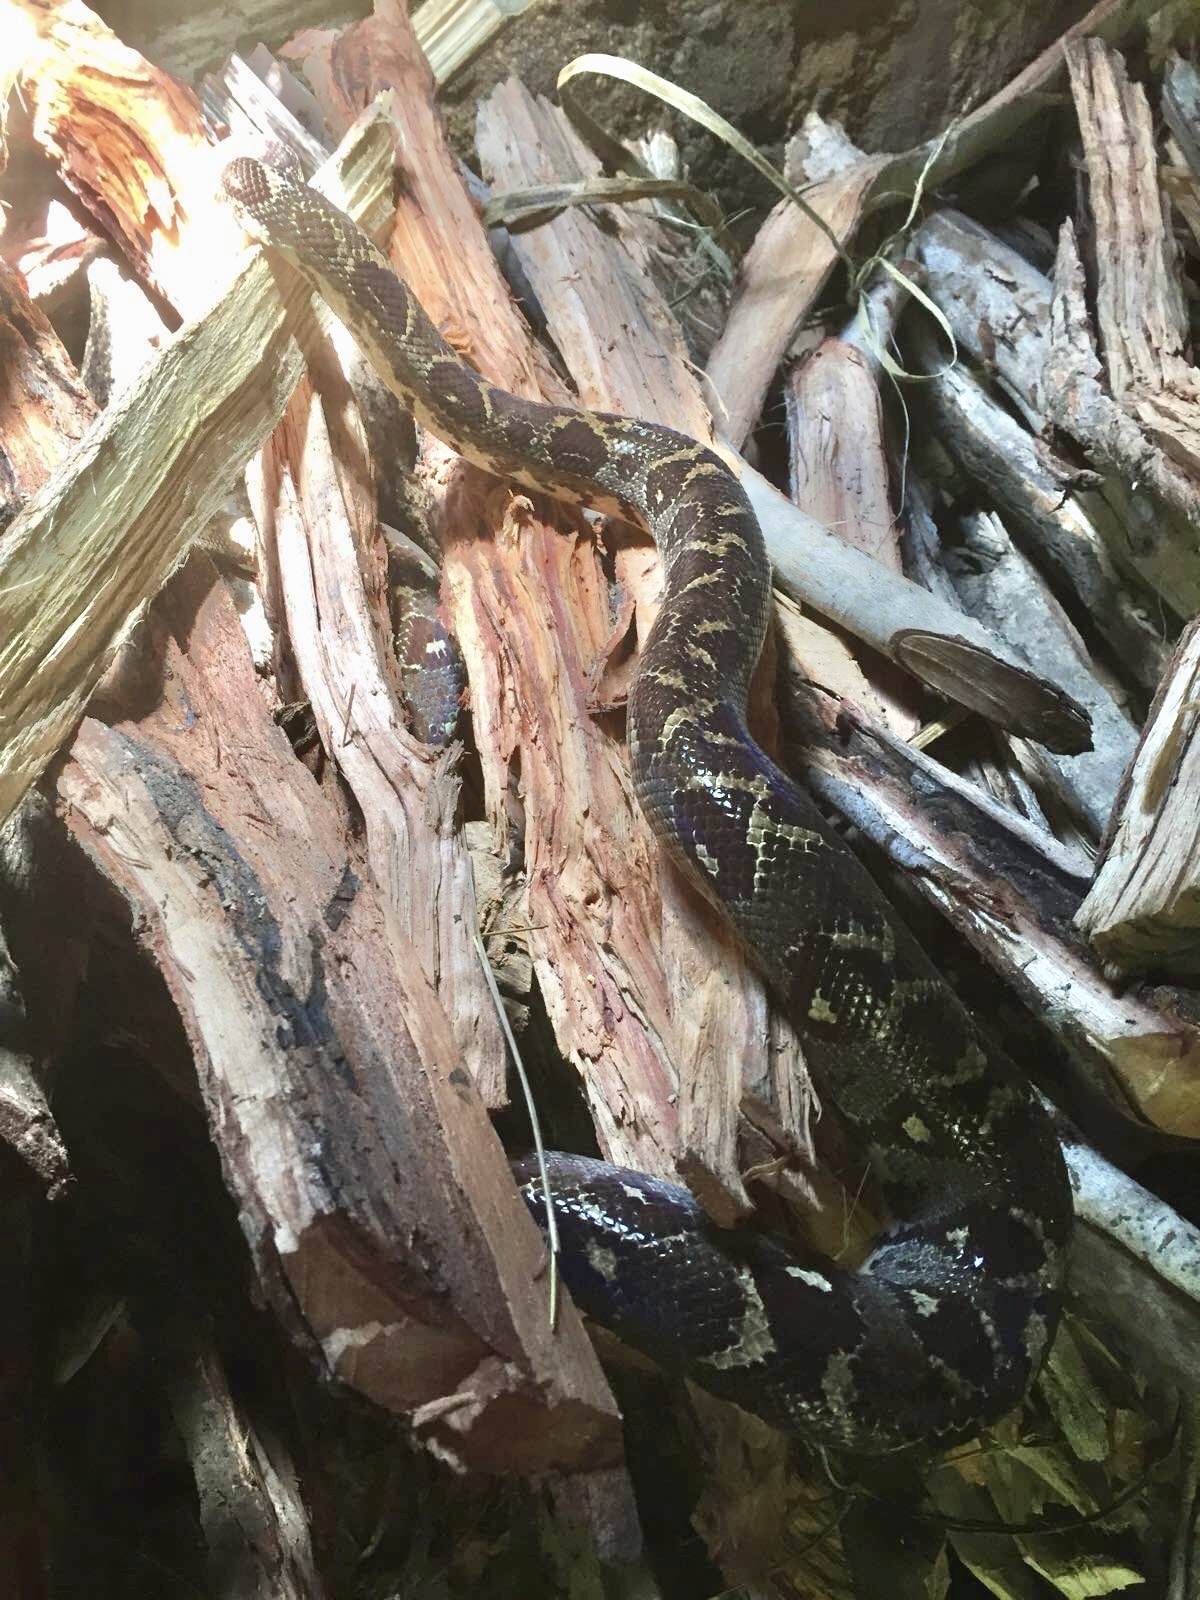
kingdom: Animalia
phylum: Chordata
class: Squamata
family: Boidae
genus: Sanzinia
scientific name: Sanzinia volontany
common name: Nosy komba tree boa
